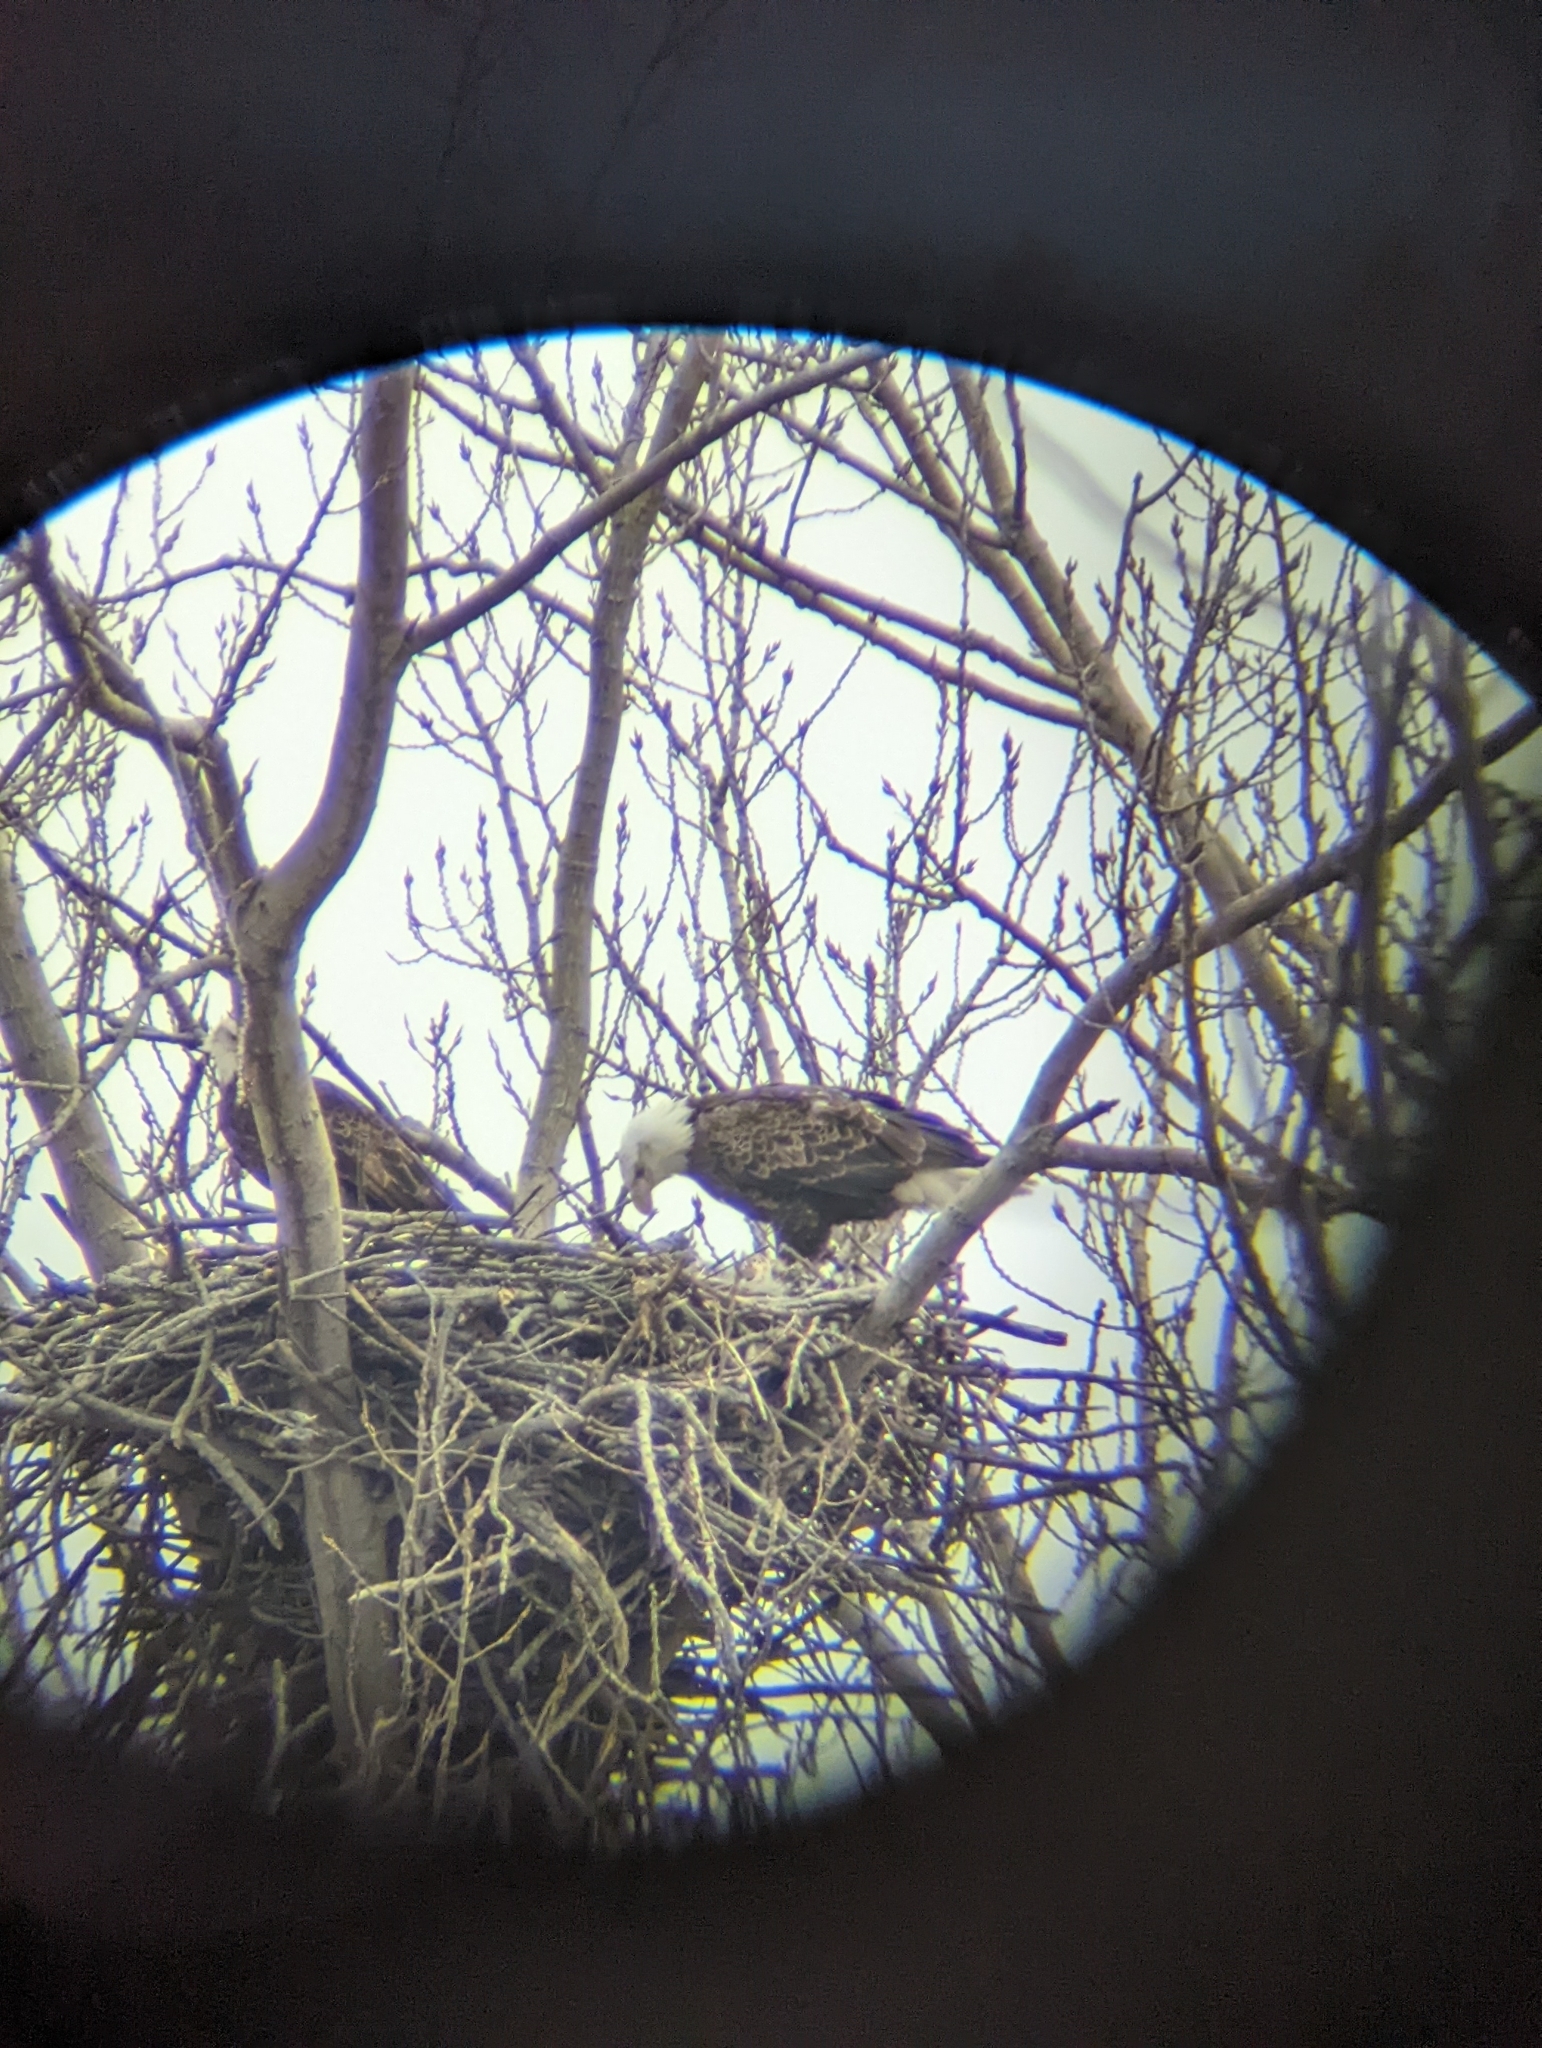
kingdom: Animalia
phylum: Chordata
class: Aves
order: Accipitriformes
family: Accipitridae
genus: Haliaeetus
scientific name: Haliaeetus leucocephalus
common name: Bald eagle
